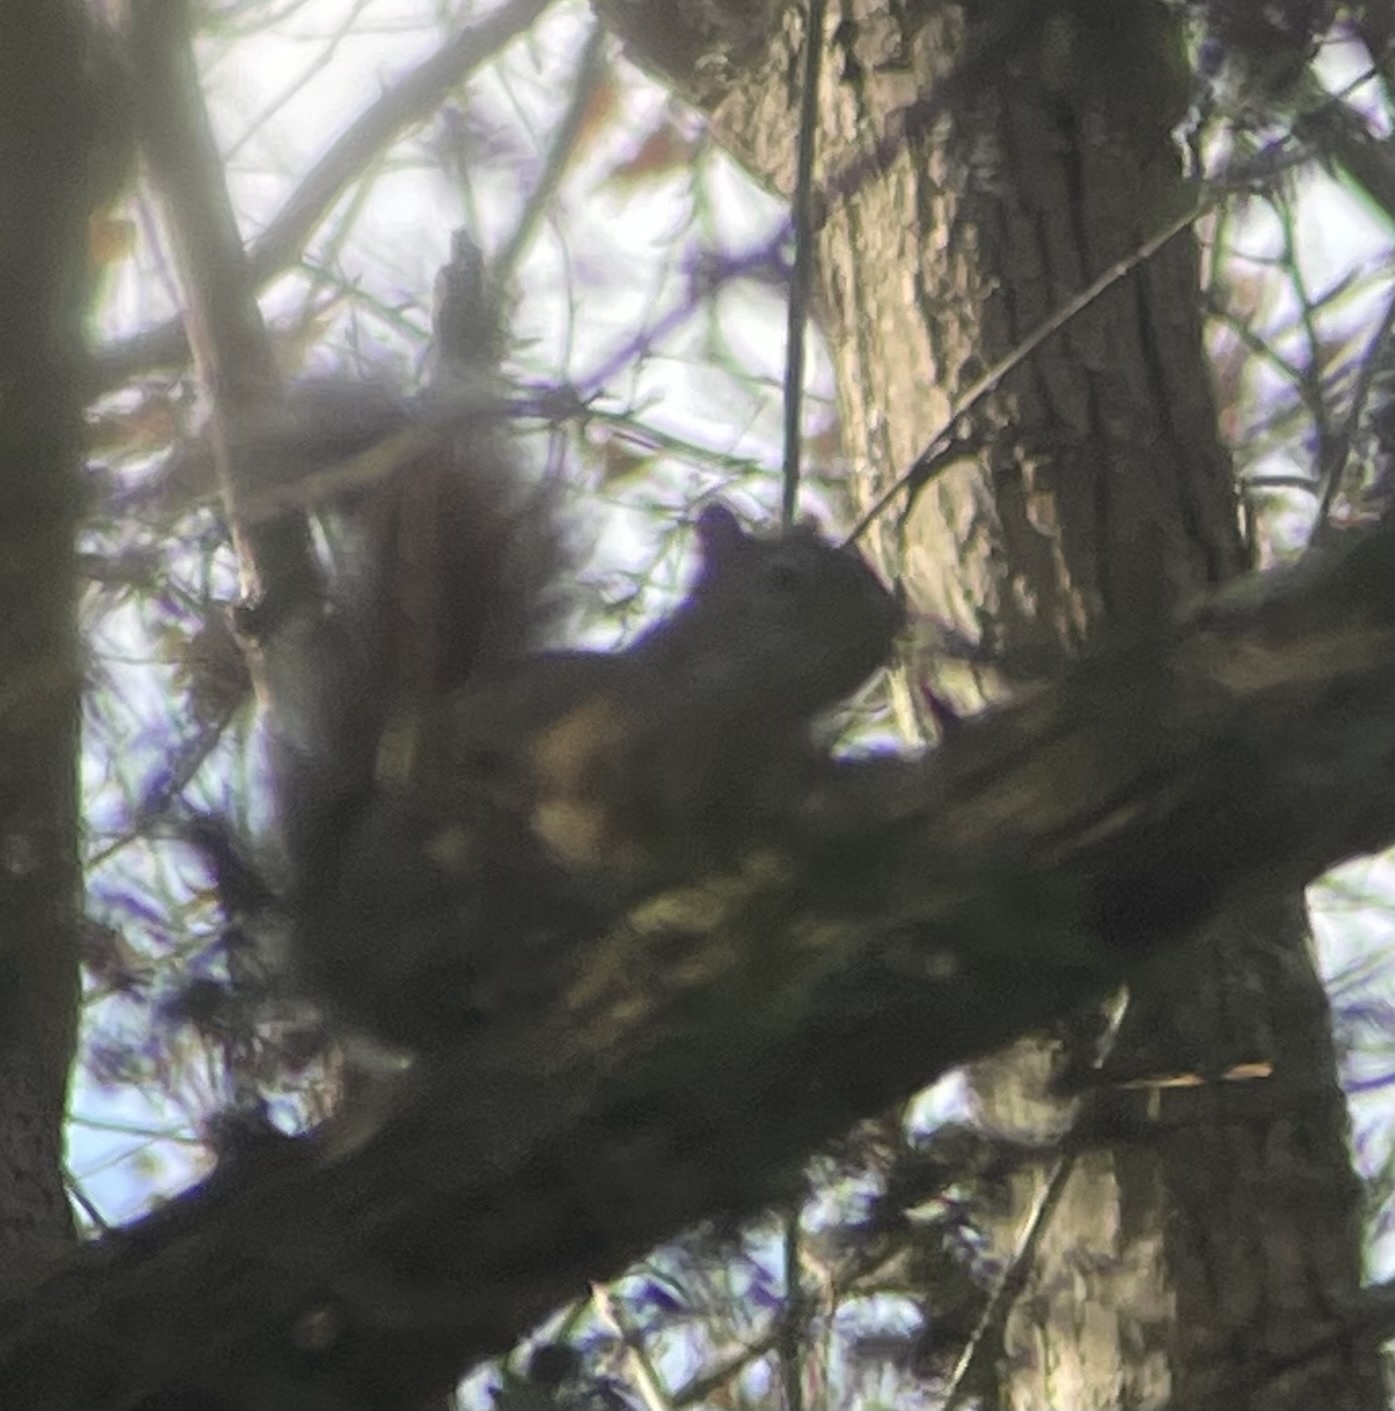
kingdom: Animalia
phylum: Chordata
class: Mammalia
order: Rodentia
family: Sciuridae
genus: Tamiasciurus
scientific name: Tamiasciurus hudsonicus
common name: Red squirrel
